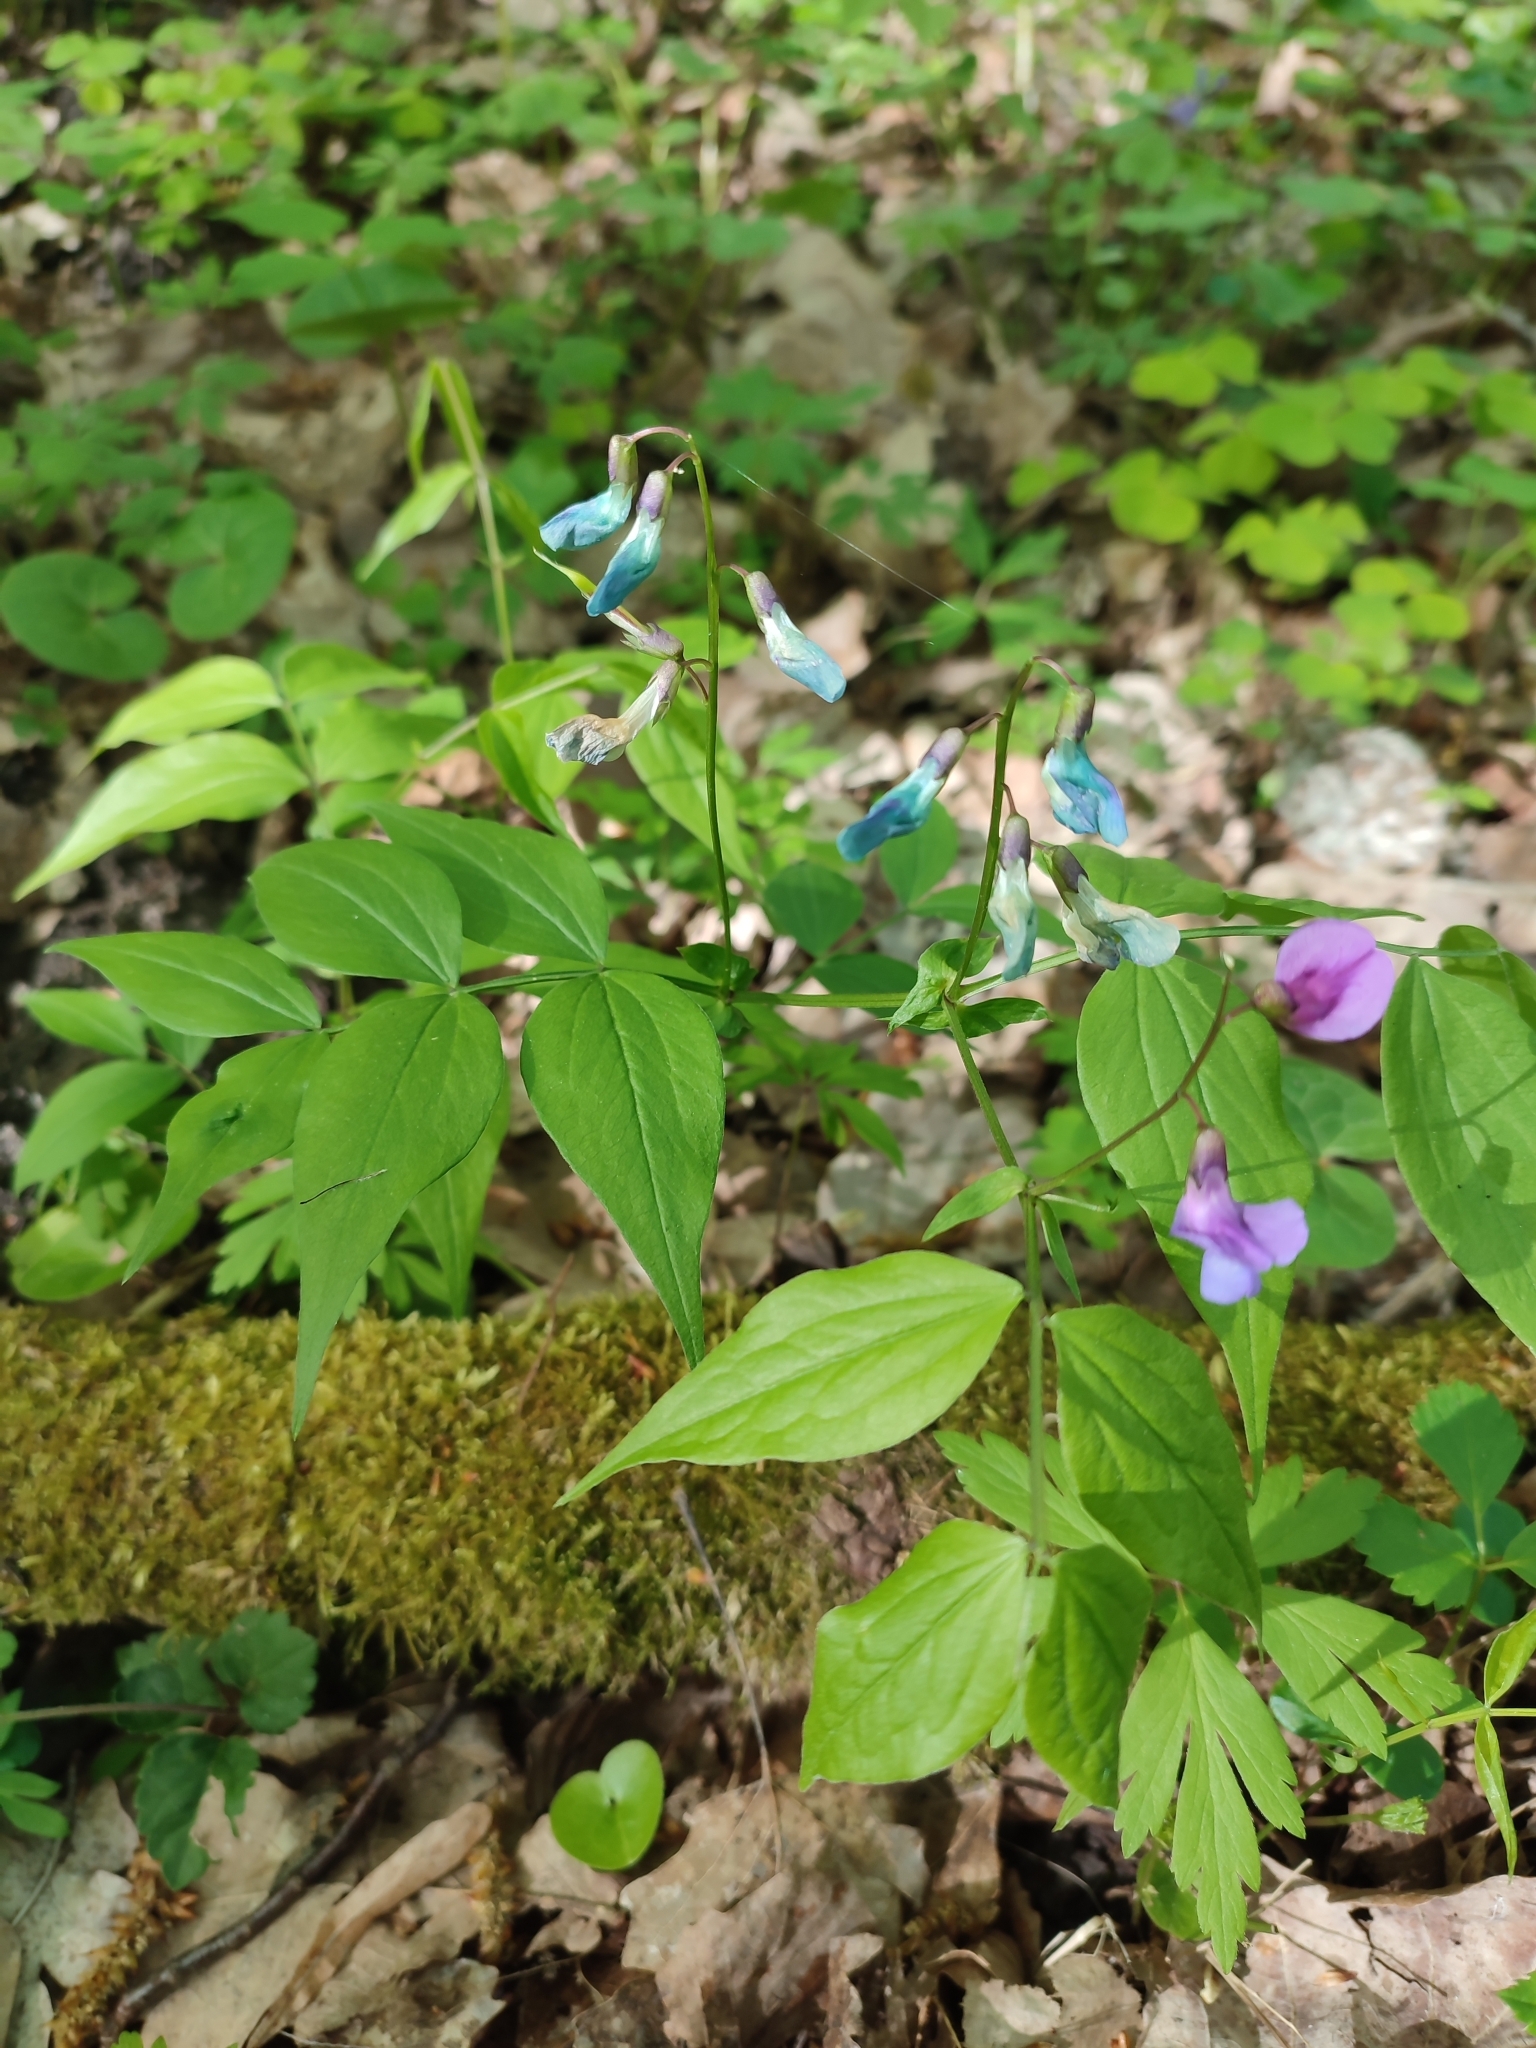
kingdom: Plantae
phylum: Tracheophyta
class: Magnoliopsida
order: Fabales
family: Fabaceae
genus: Lathyrus
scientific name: Lathyrus vernus
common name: Spring pea
